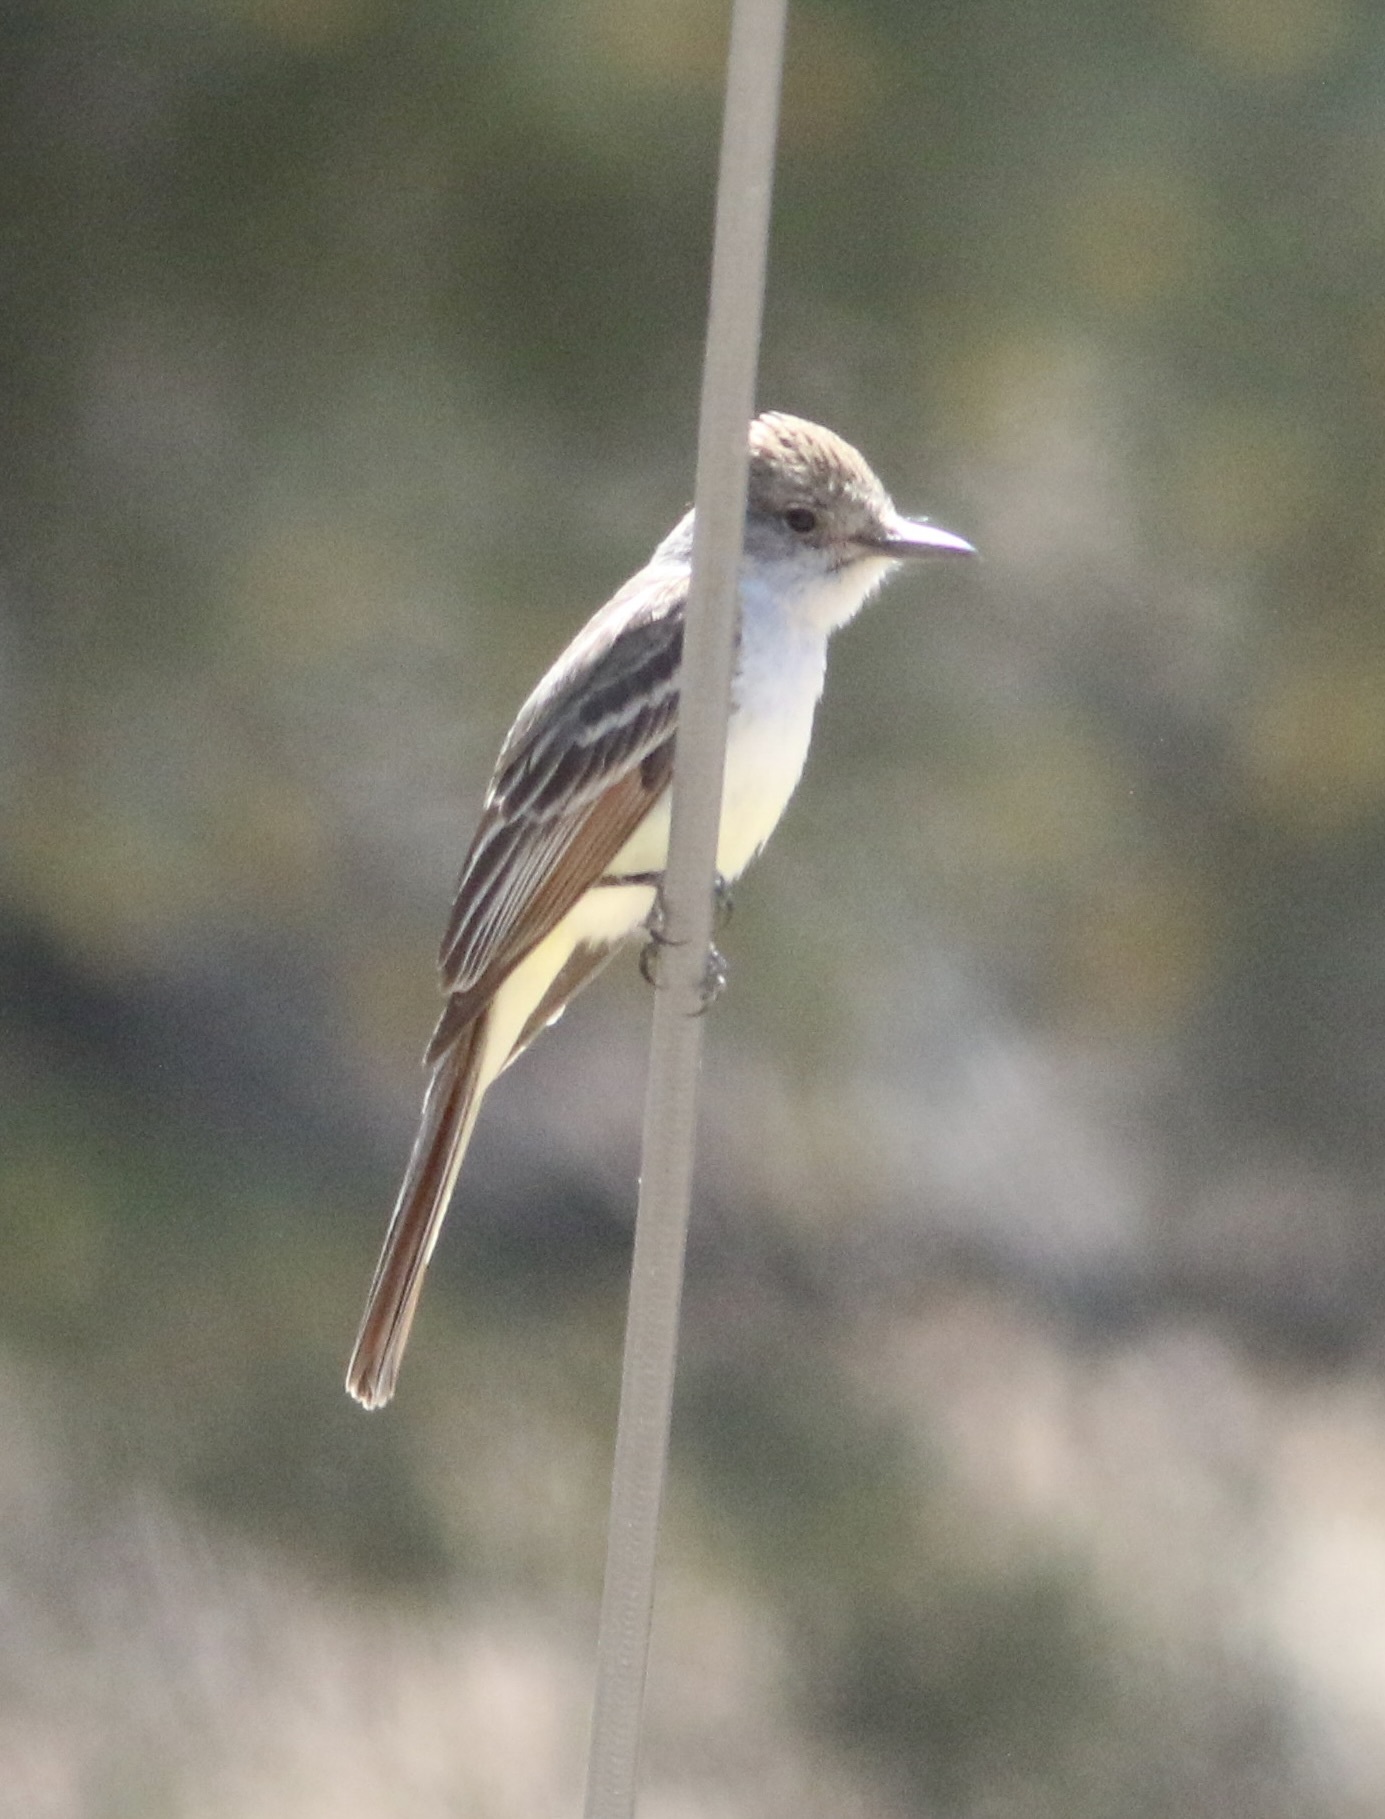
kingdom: Animalia
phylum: Chordata
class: Aves
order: Passeriformes
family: Tyrannidae
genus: Myiarchus
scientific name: Myiarchus cinerascens
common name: Ash-throated flycatcher
